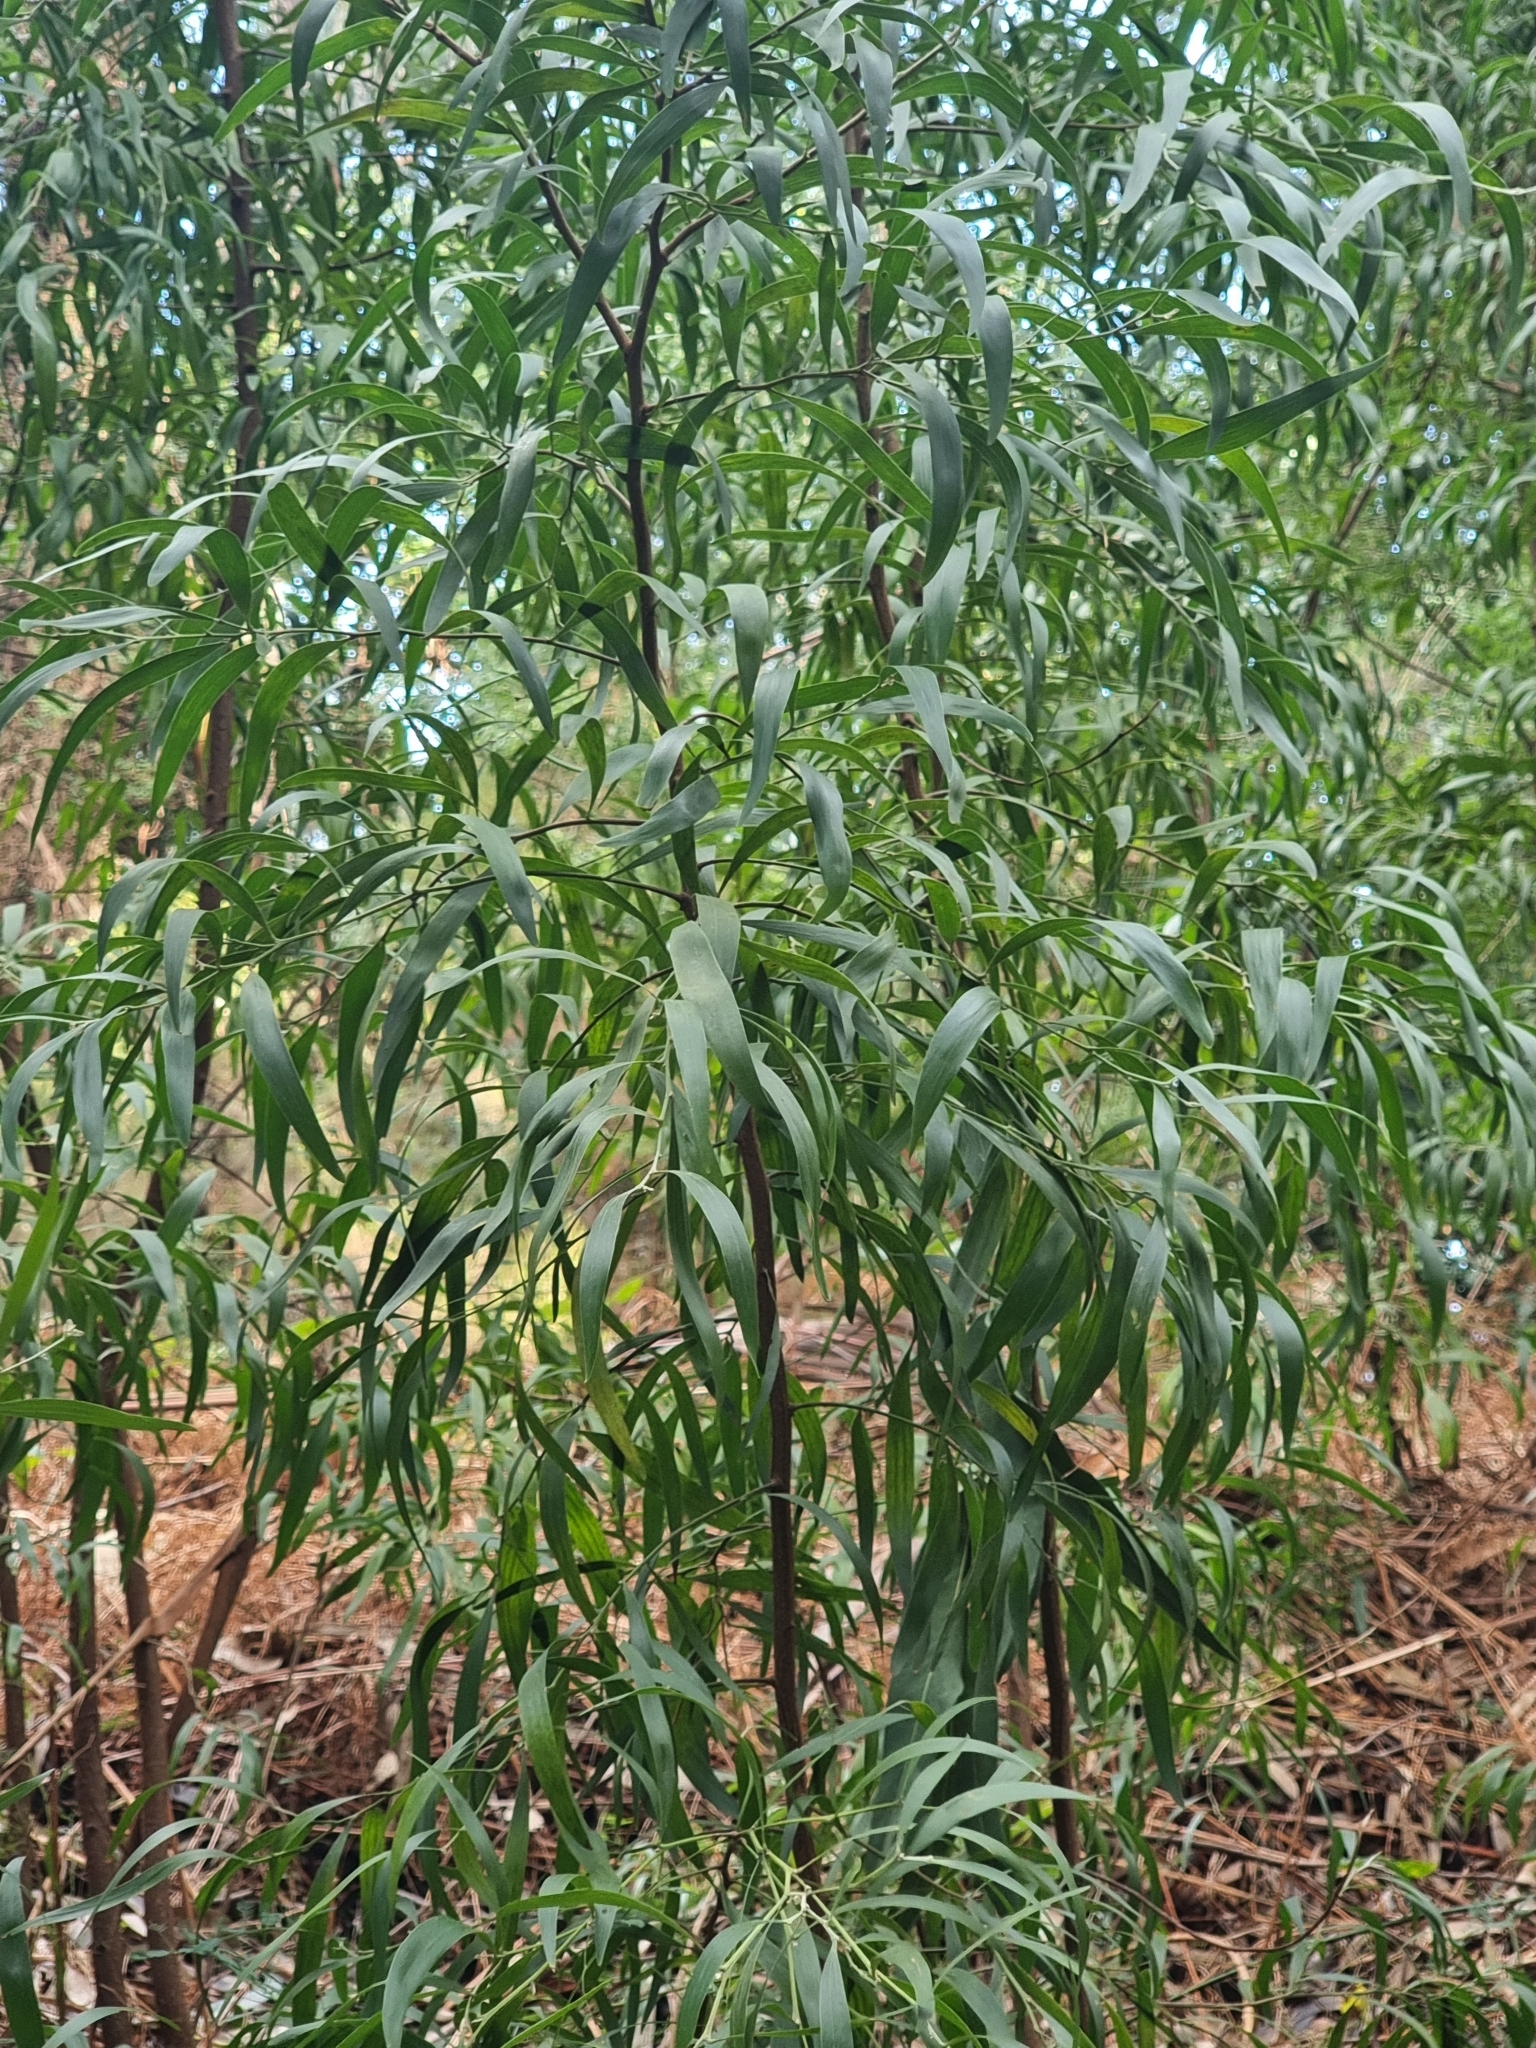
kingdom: Plantae
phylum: Tracheophyta
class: Magnoliopsida
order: Fabales
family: Fabaceae
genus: Acacia
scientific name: Acacia melanoxylon
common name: Blackwood
